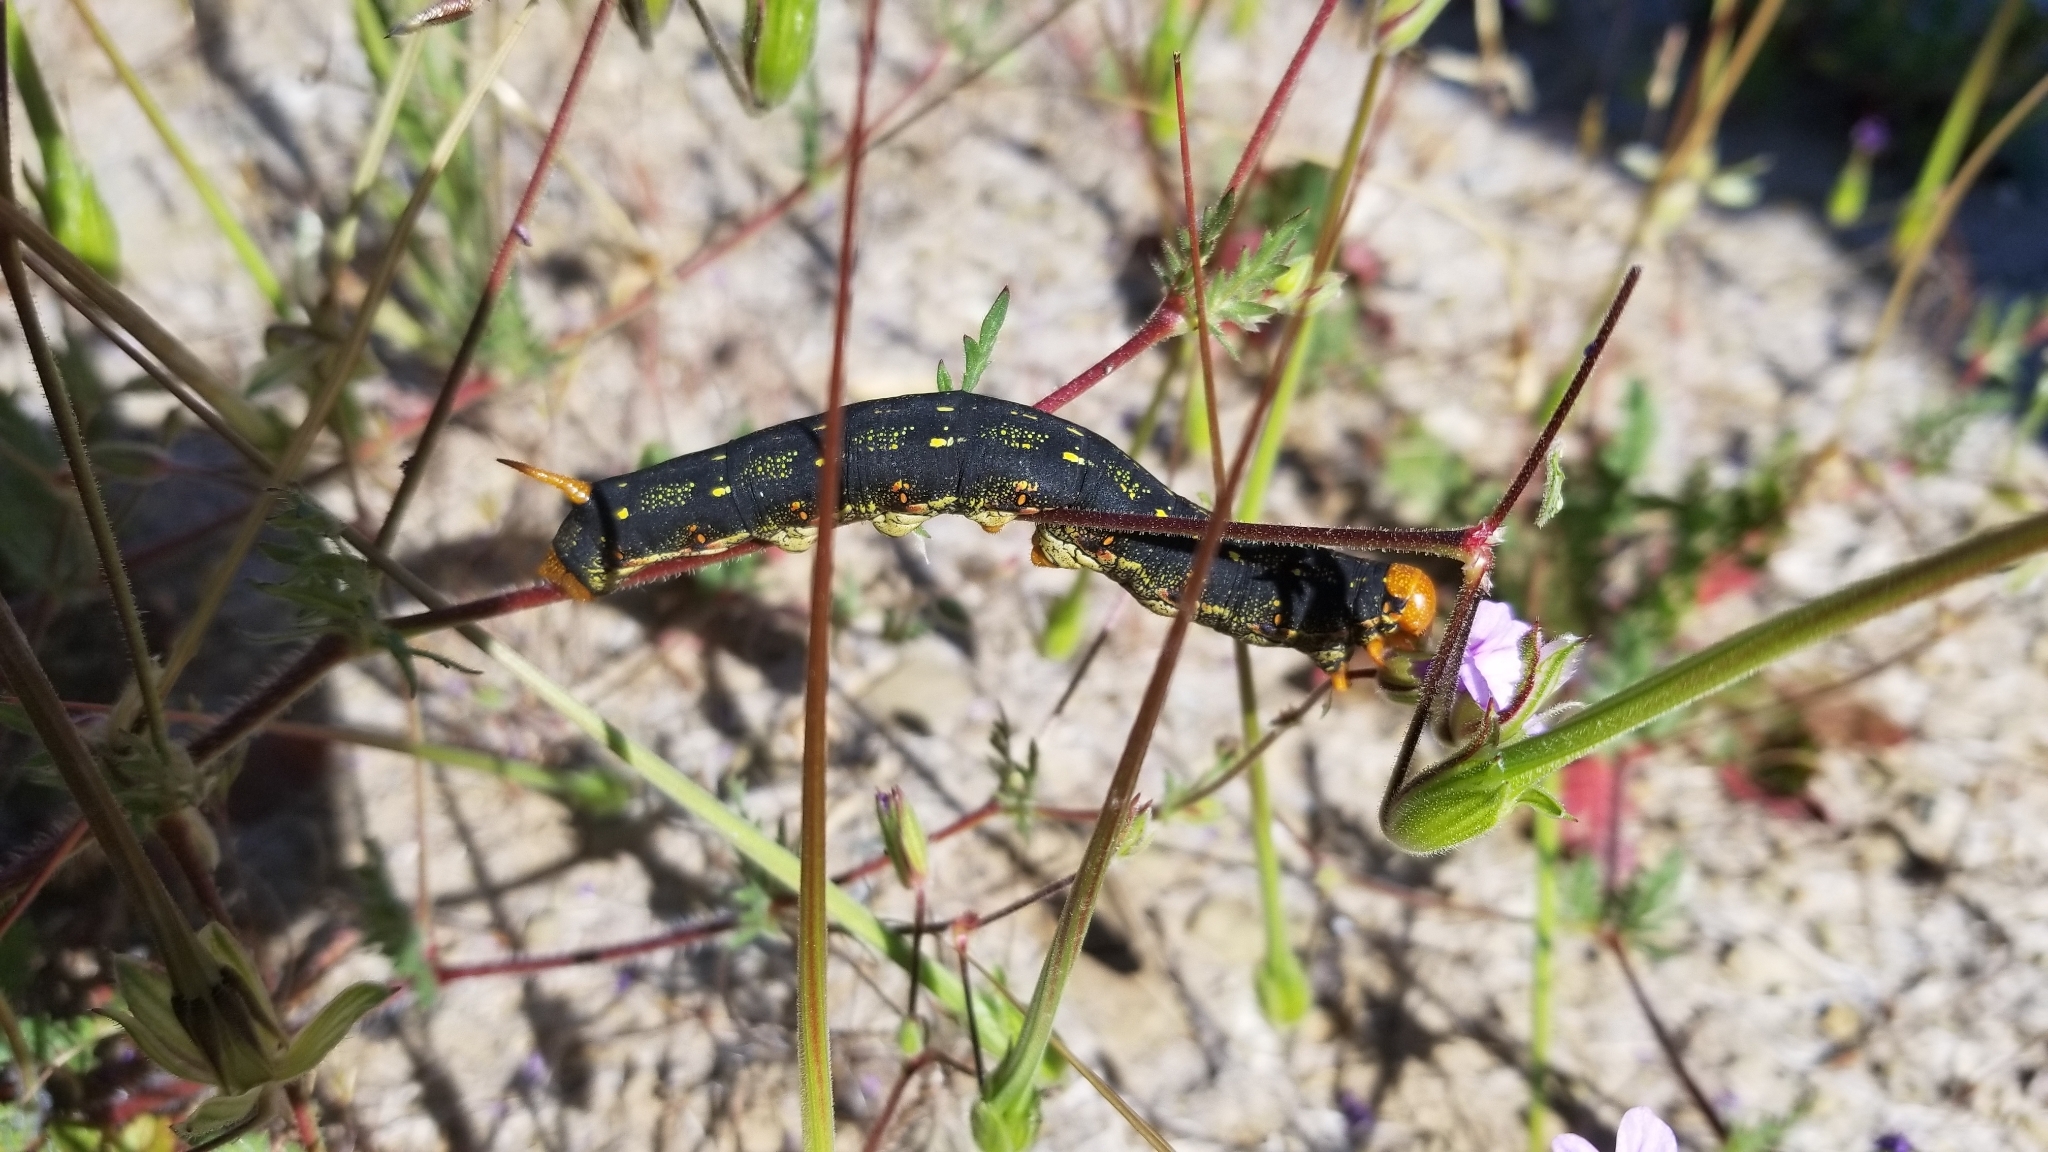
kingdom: Animalia
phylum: Arthropoda
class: Insecta
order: Lepidoptera
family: Sphingidae
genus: Hyles
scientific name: Hyles lineata
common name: White-lined sphinx
